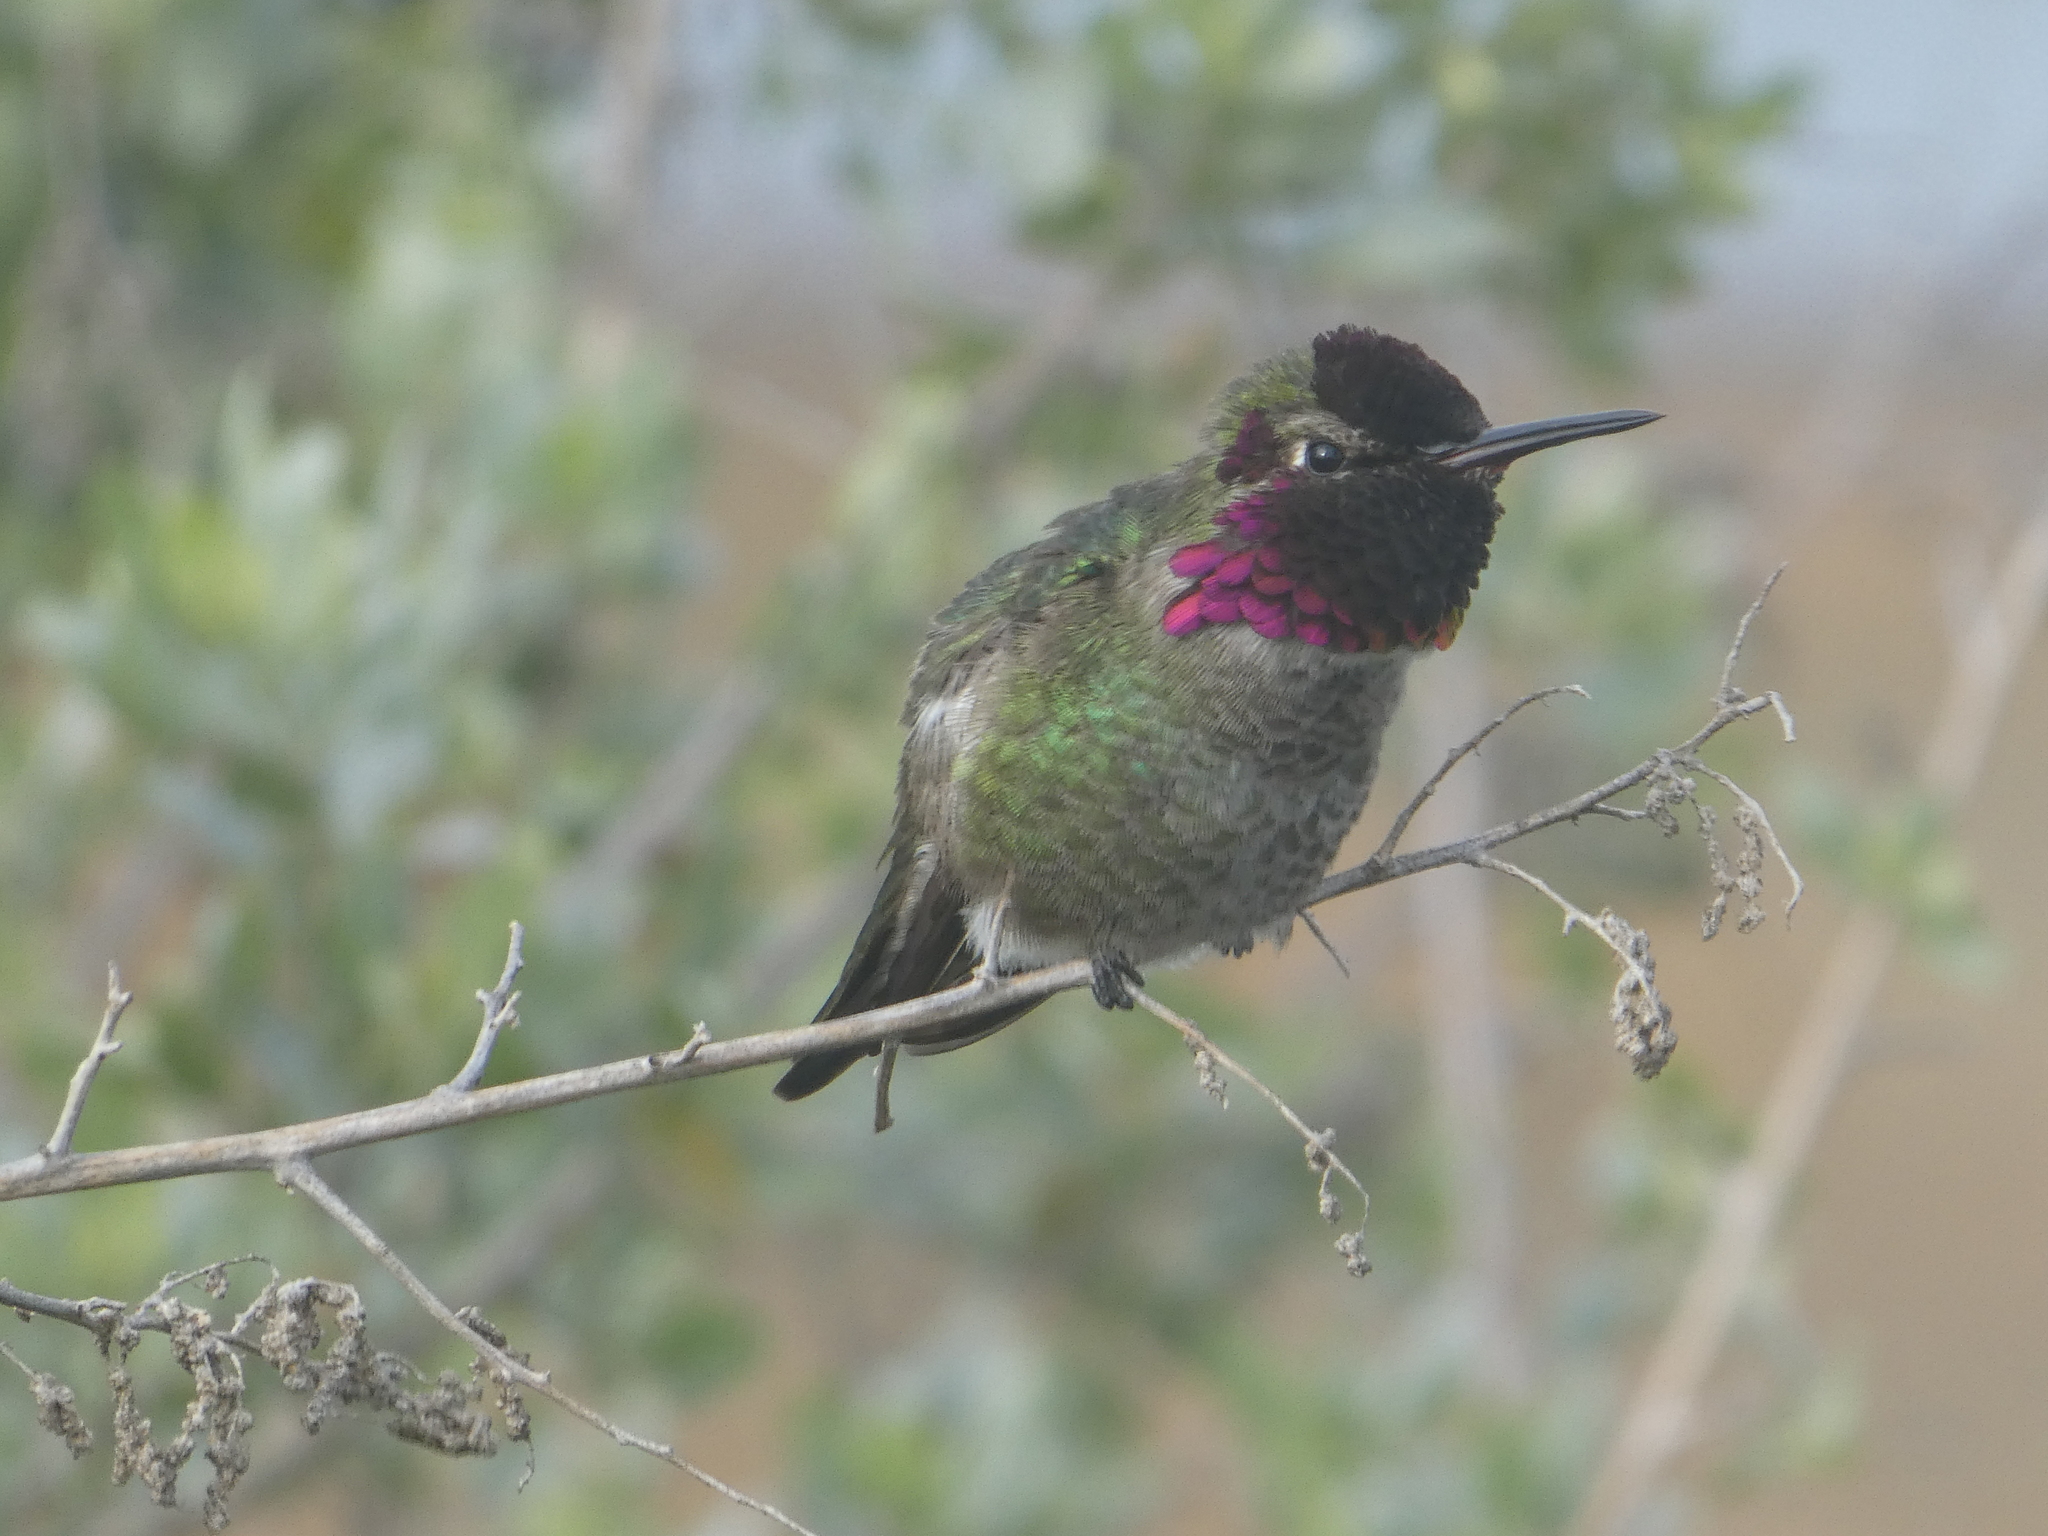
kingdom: Animalia
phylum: Chordata
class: Aves
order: Apodiformes
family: Trochilidae
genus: Calypte
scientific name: Calypte anna
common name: Anna's hummingbird
